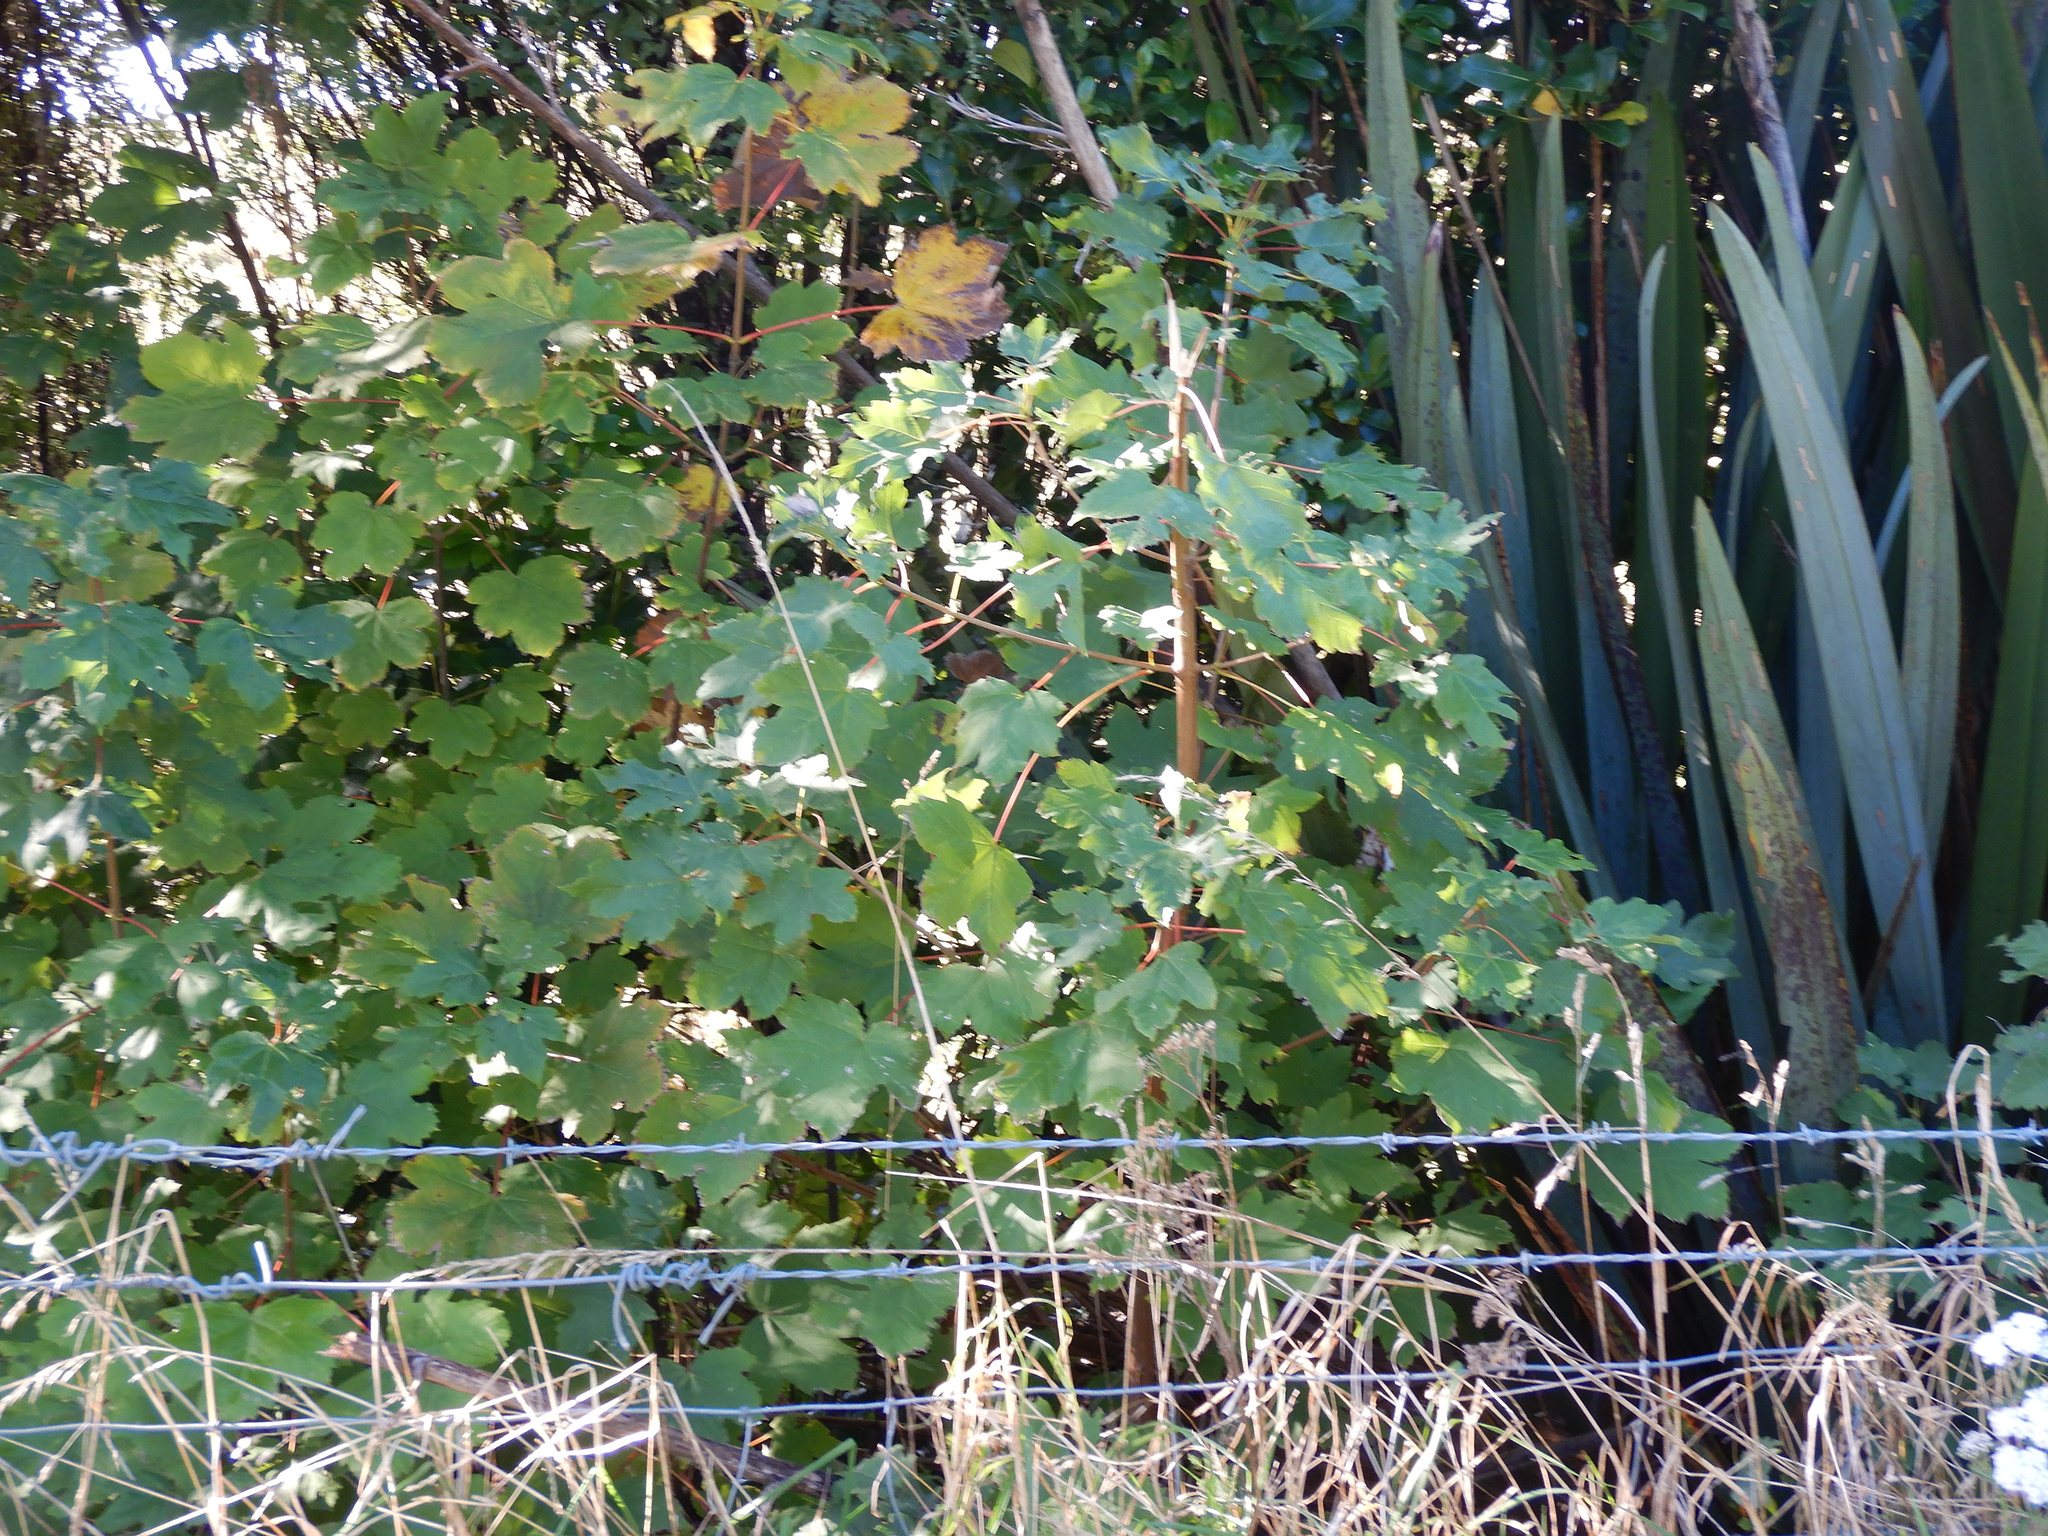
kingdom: Plantae
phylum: Tracheophyta
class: Magnoliopsida
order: Sapindales
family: Sapindaceae
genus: Acer
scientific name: Acer pseudoplatanus
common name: Sycamore
